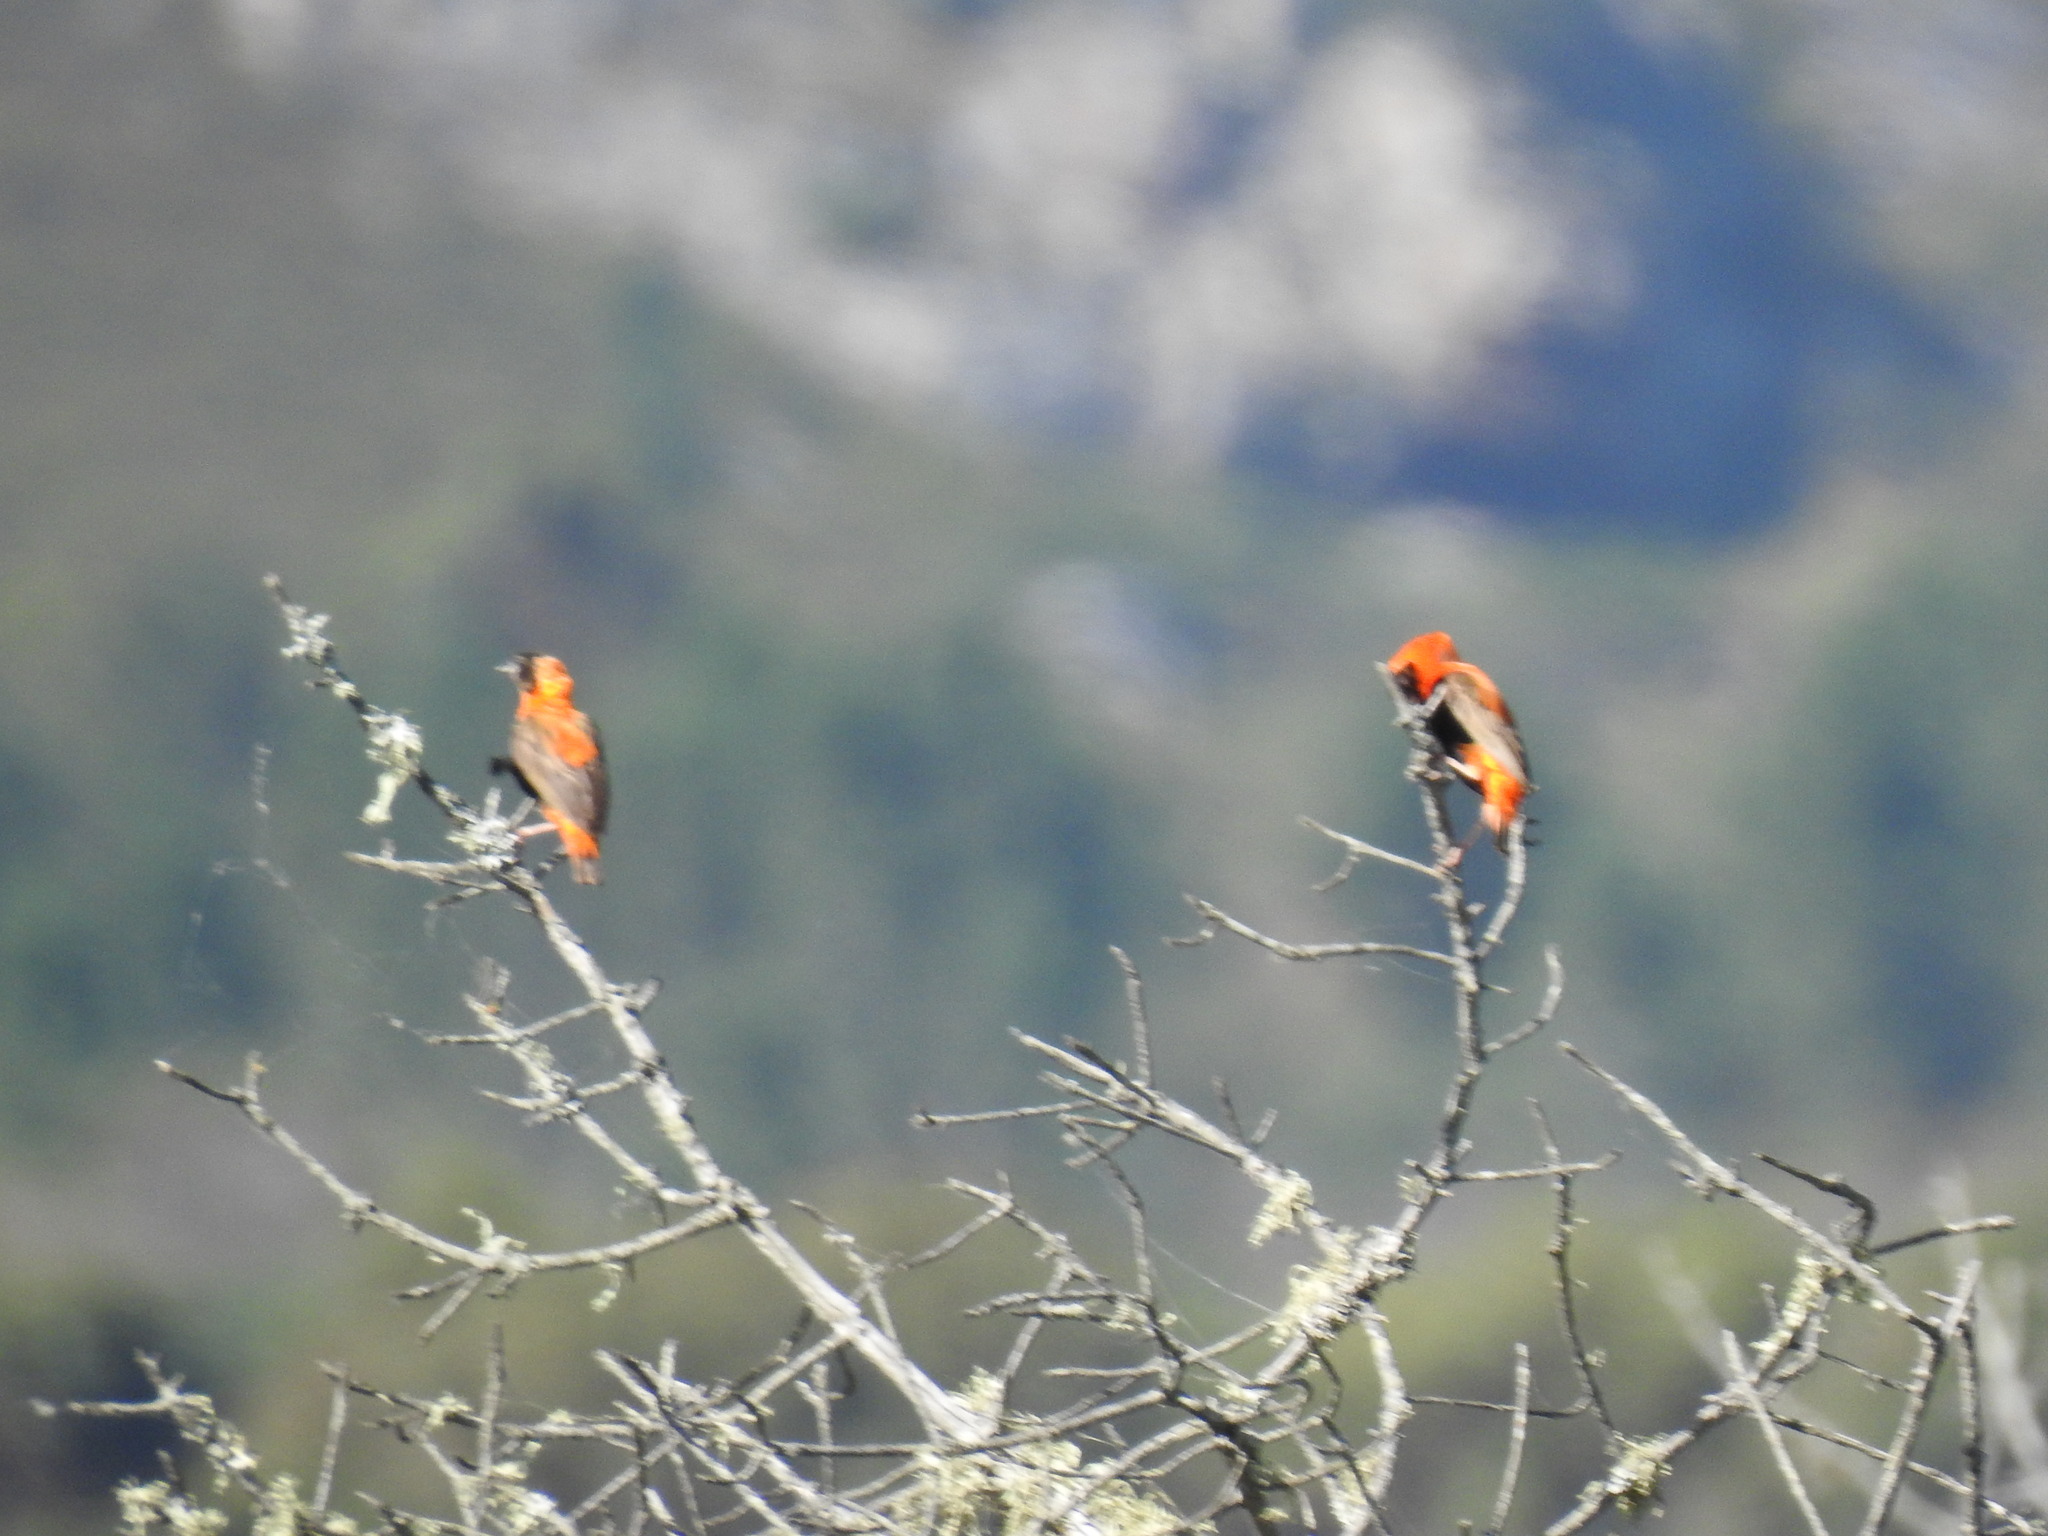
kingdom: Animalia
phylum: Chordata
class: Aves
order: Passeriformes
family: Ploceidae
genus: Euplectes
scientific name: Euplectes orix
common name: Southern red bishop
